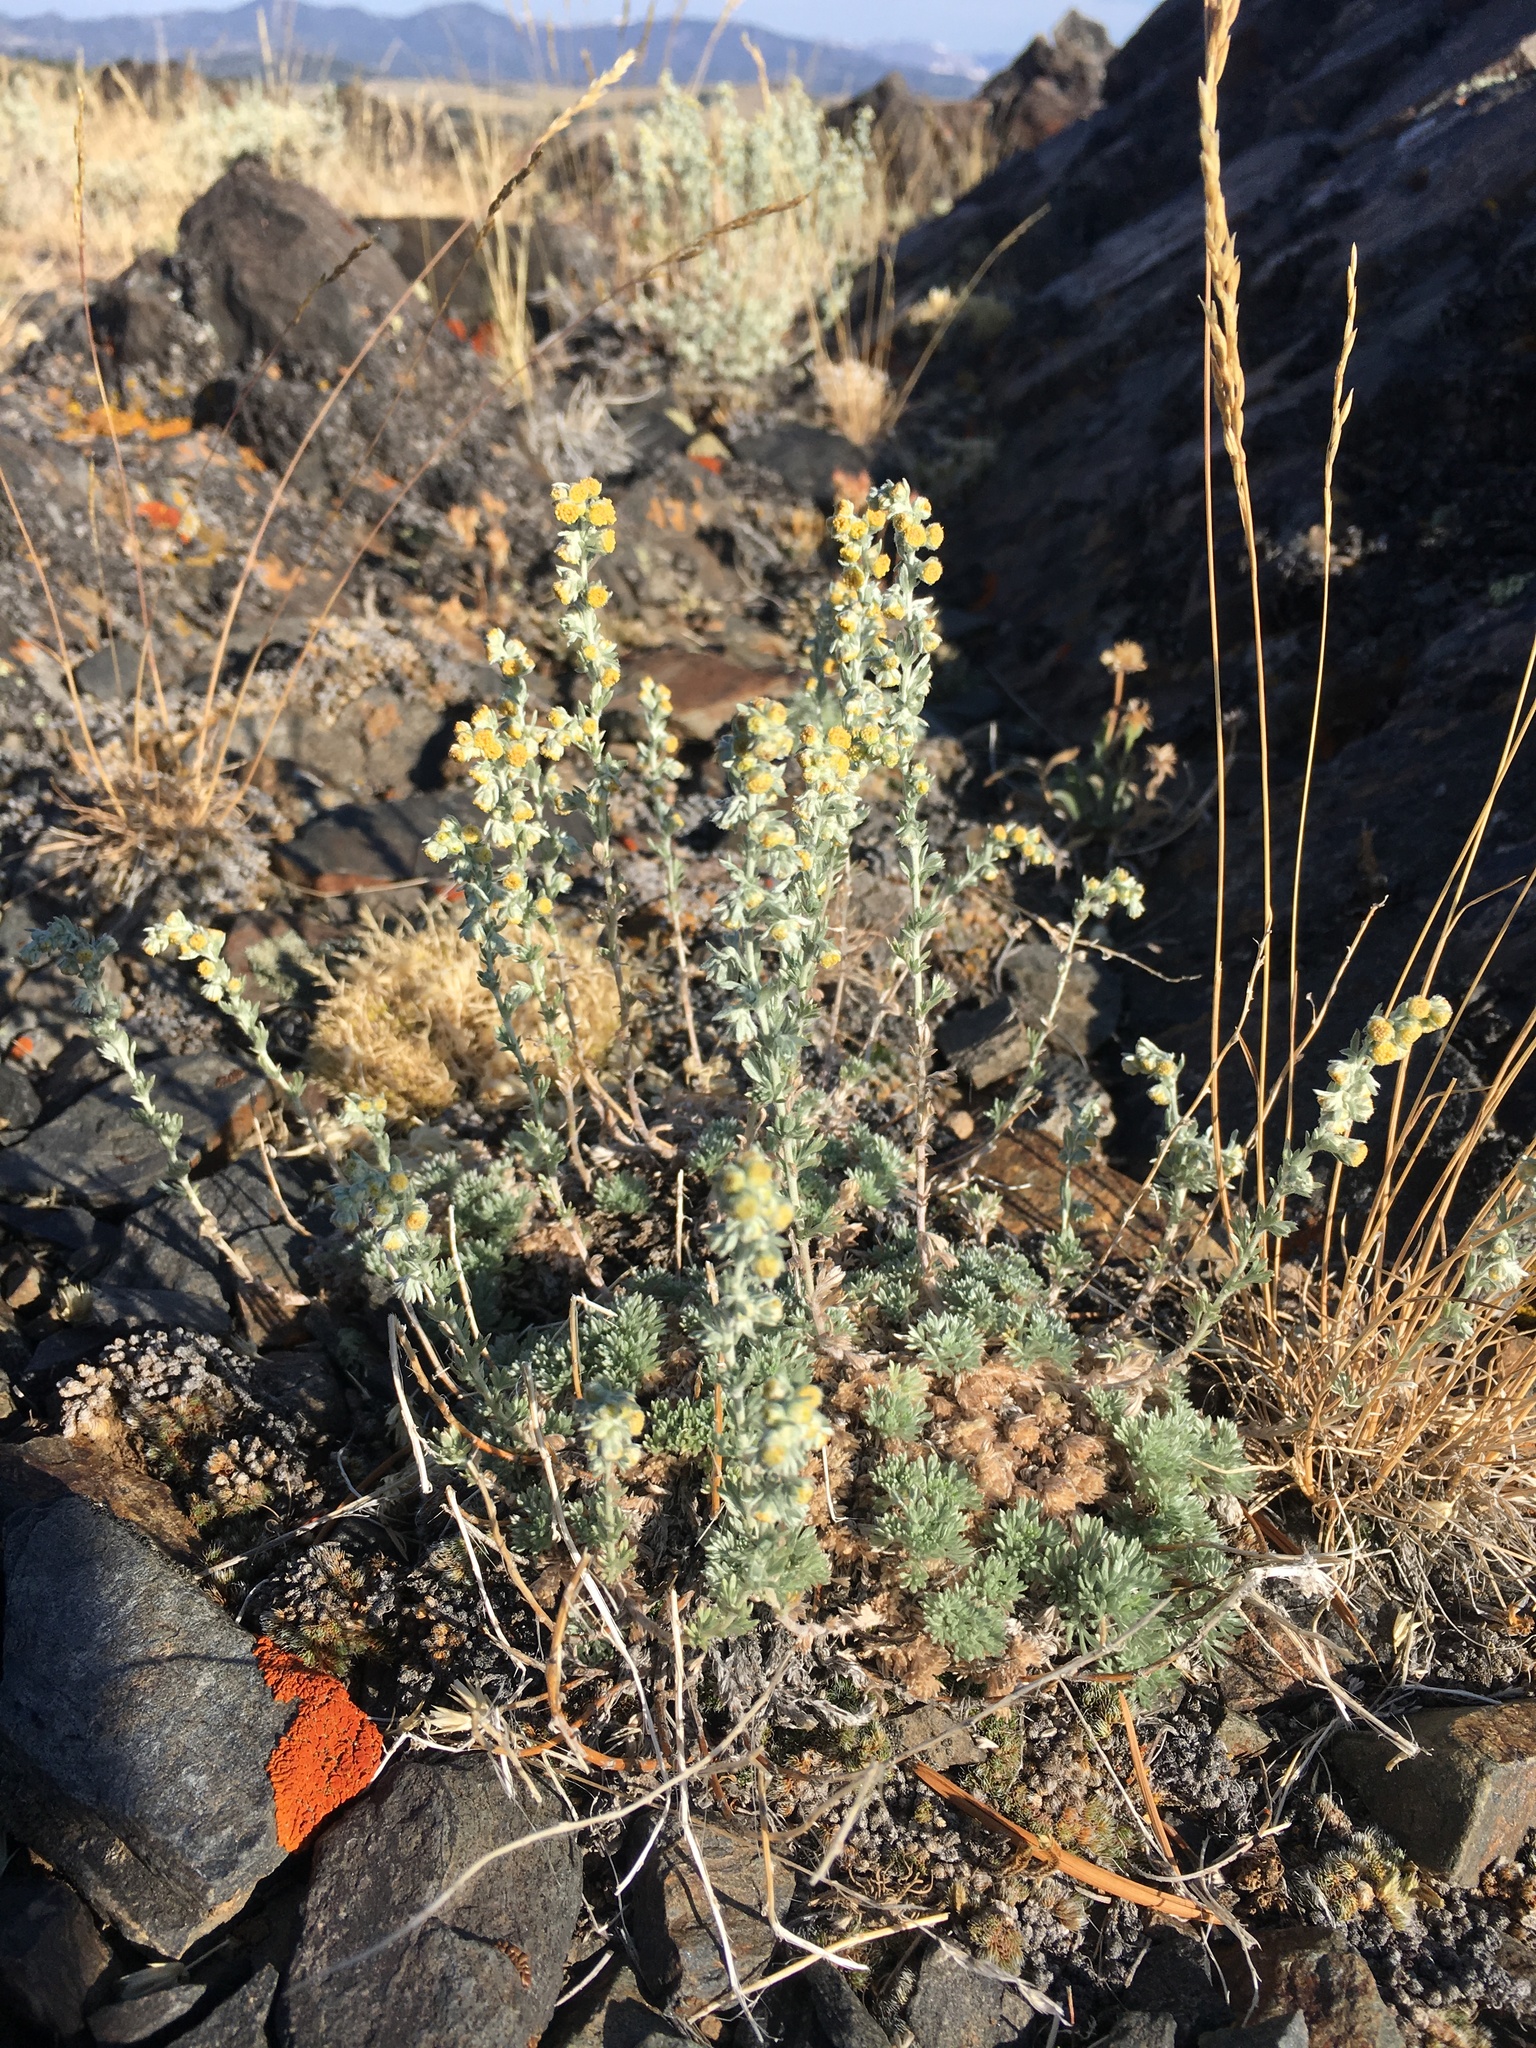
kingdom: Plantae
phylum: Tracheophyta
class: Magnoliopsida
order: Asterales
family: Asteraceae
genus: Artemisia
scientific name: Artemisia frigida
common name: Prairie sagewort
